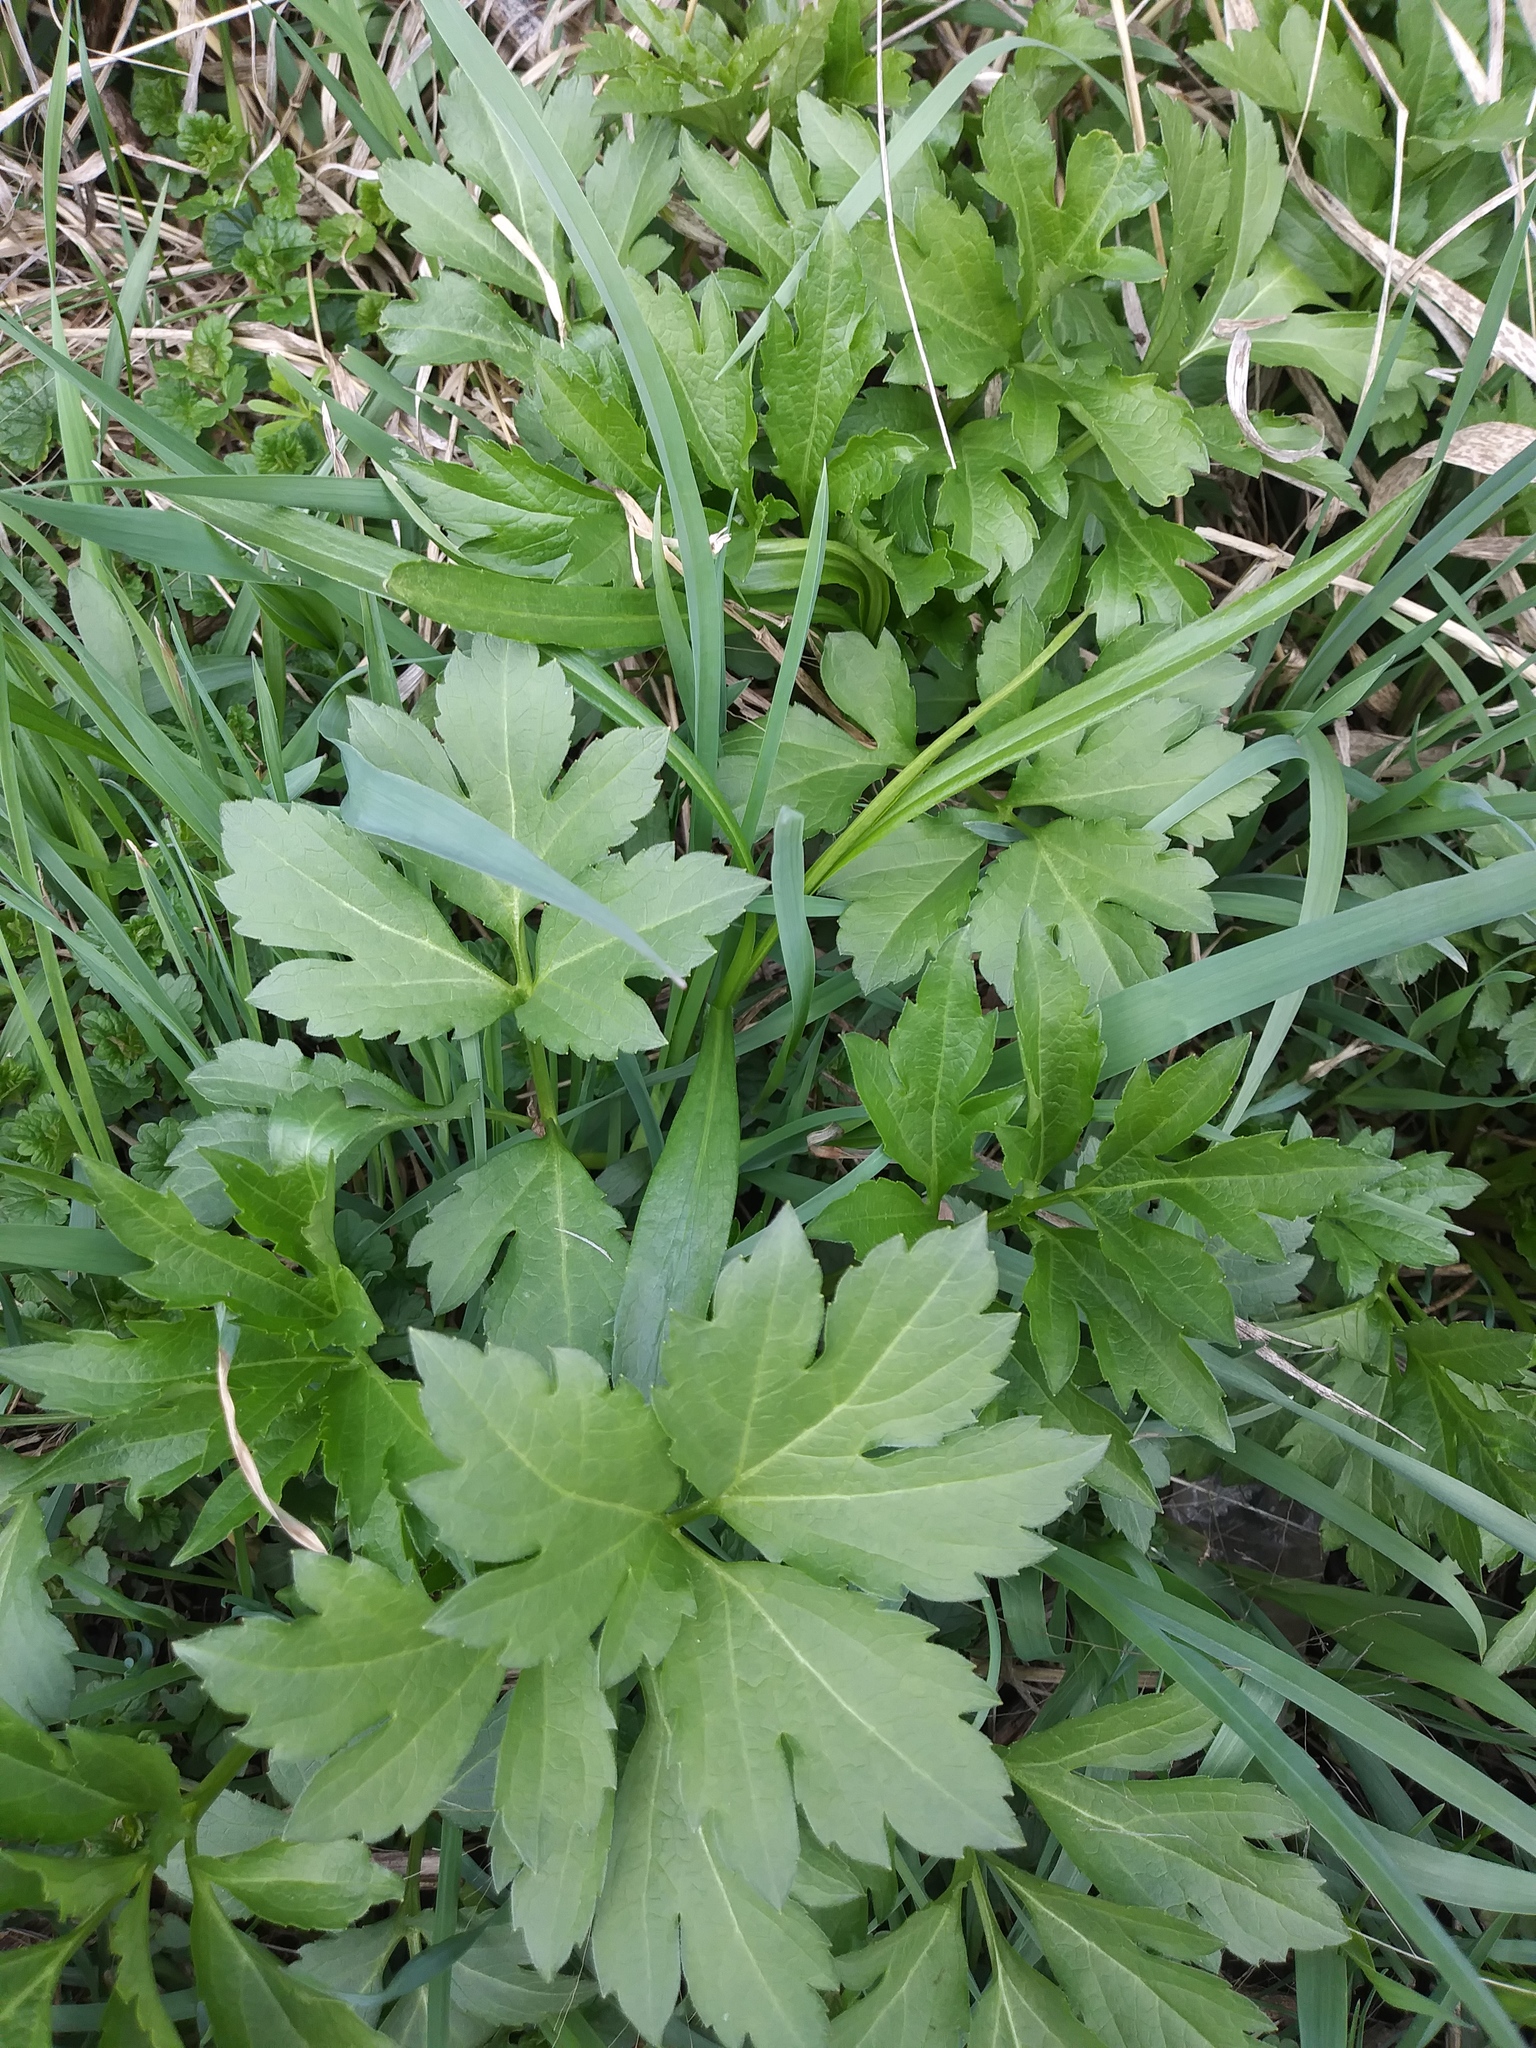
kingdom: Plantae
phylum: Tracheophyta
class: Magnoliopsida
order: Asterales
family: Asteraceae
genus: Rudbeckia
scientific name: Rudbeckia laciniata
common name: Coneflower
